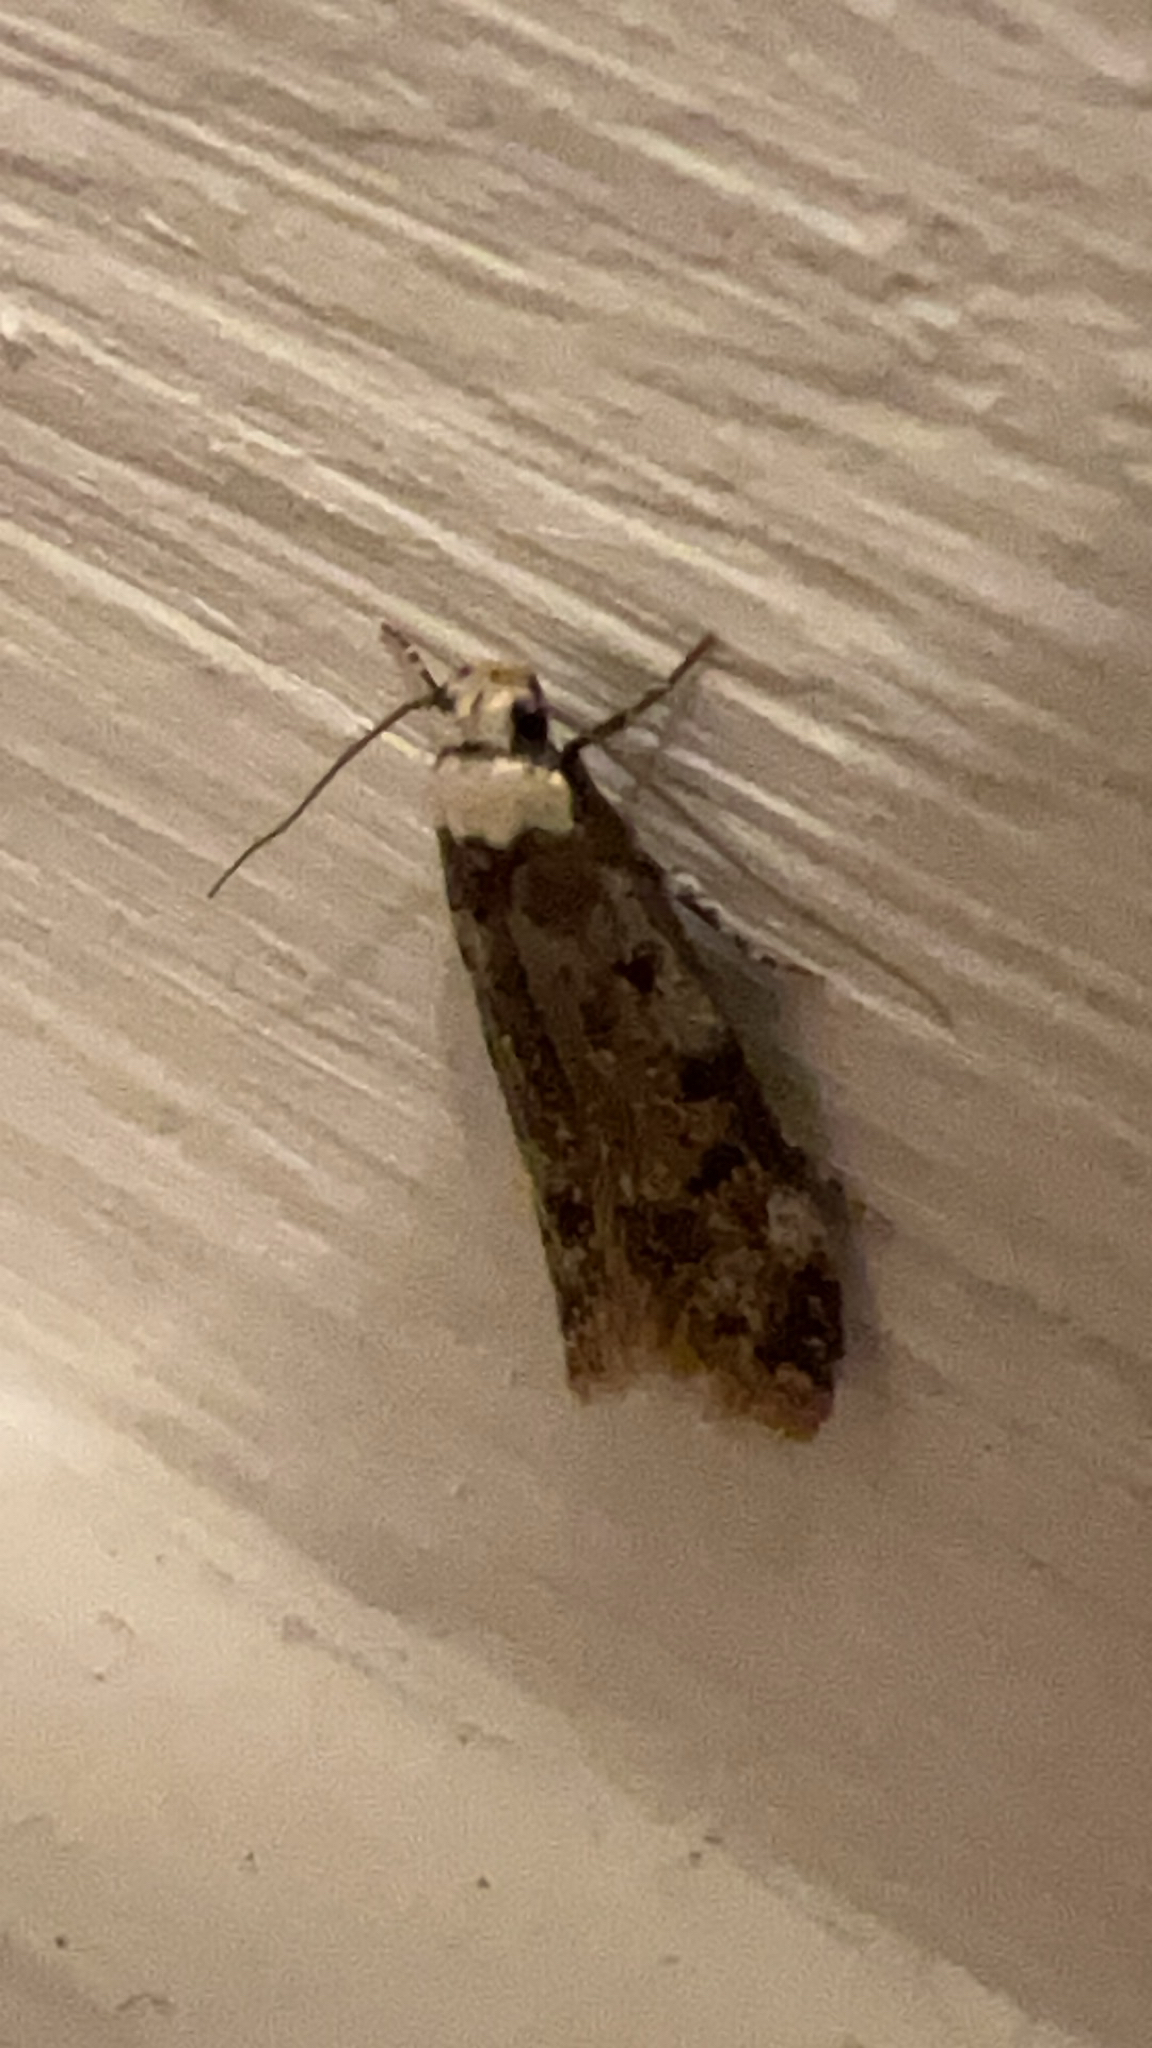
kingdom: Animalia
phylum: Arthropoda
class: Insecta
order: Lepidoptera
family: Oecophoridae
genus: Endrosis
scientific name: Endrosis sarcitrella
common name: White-shouldered house moth
